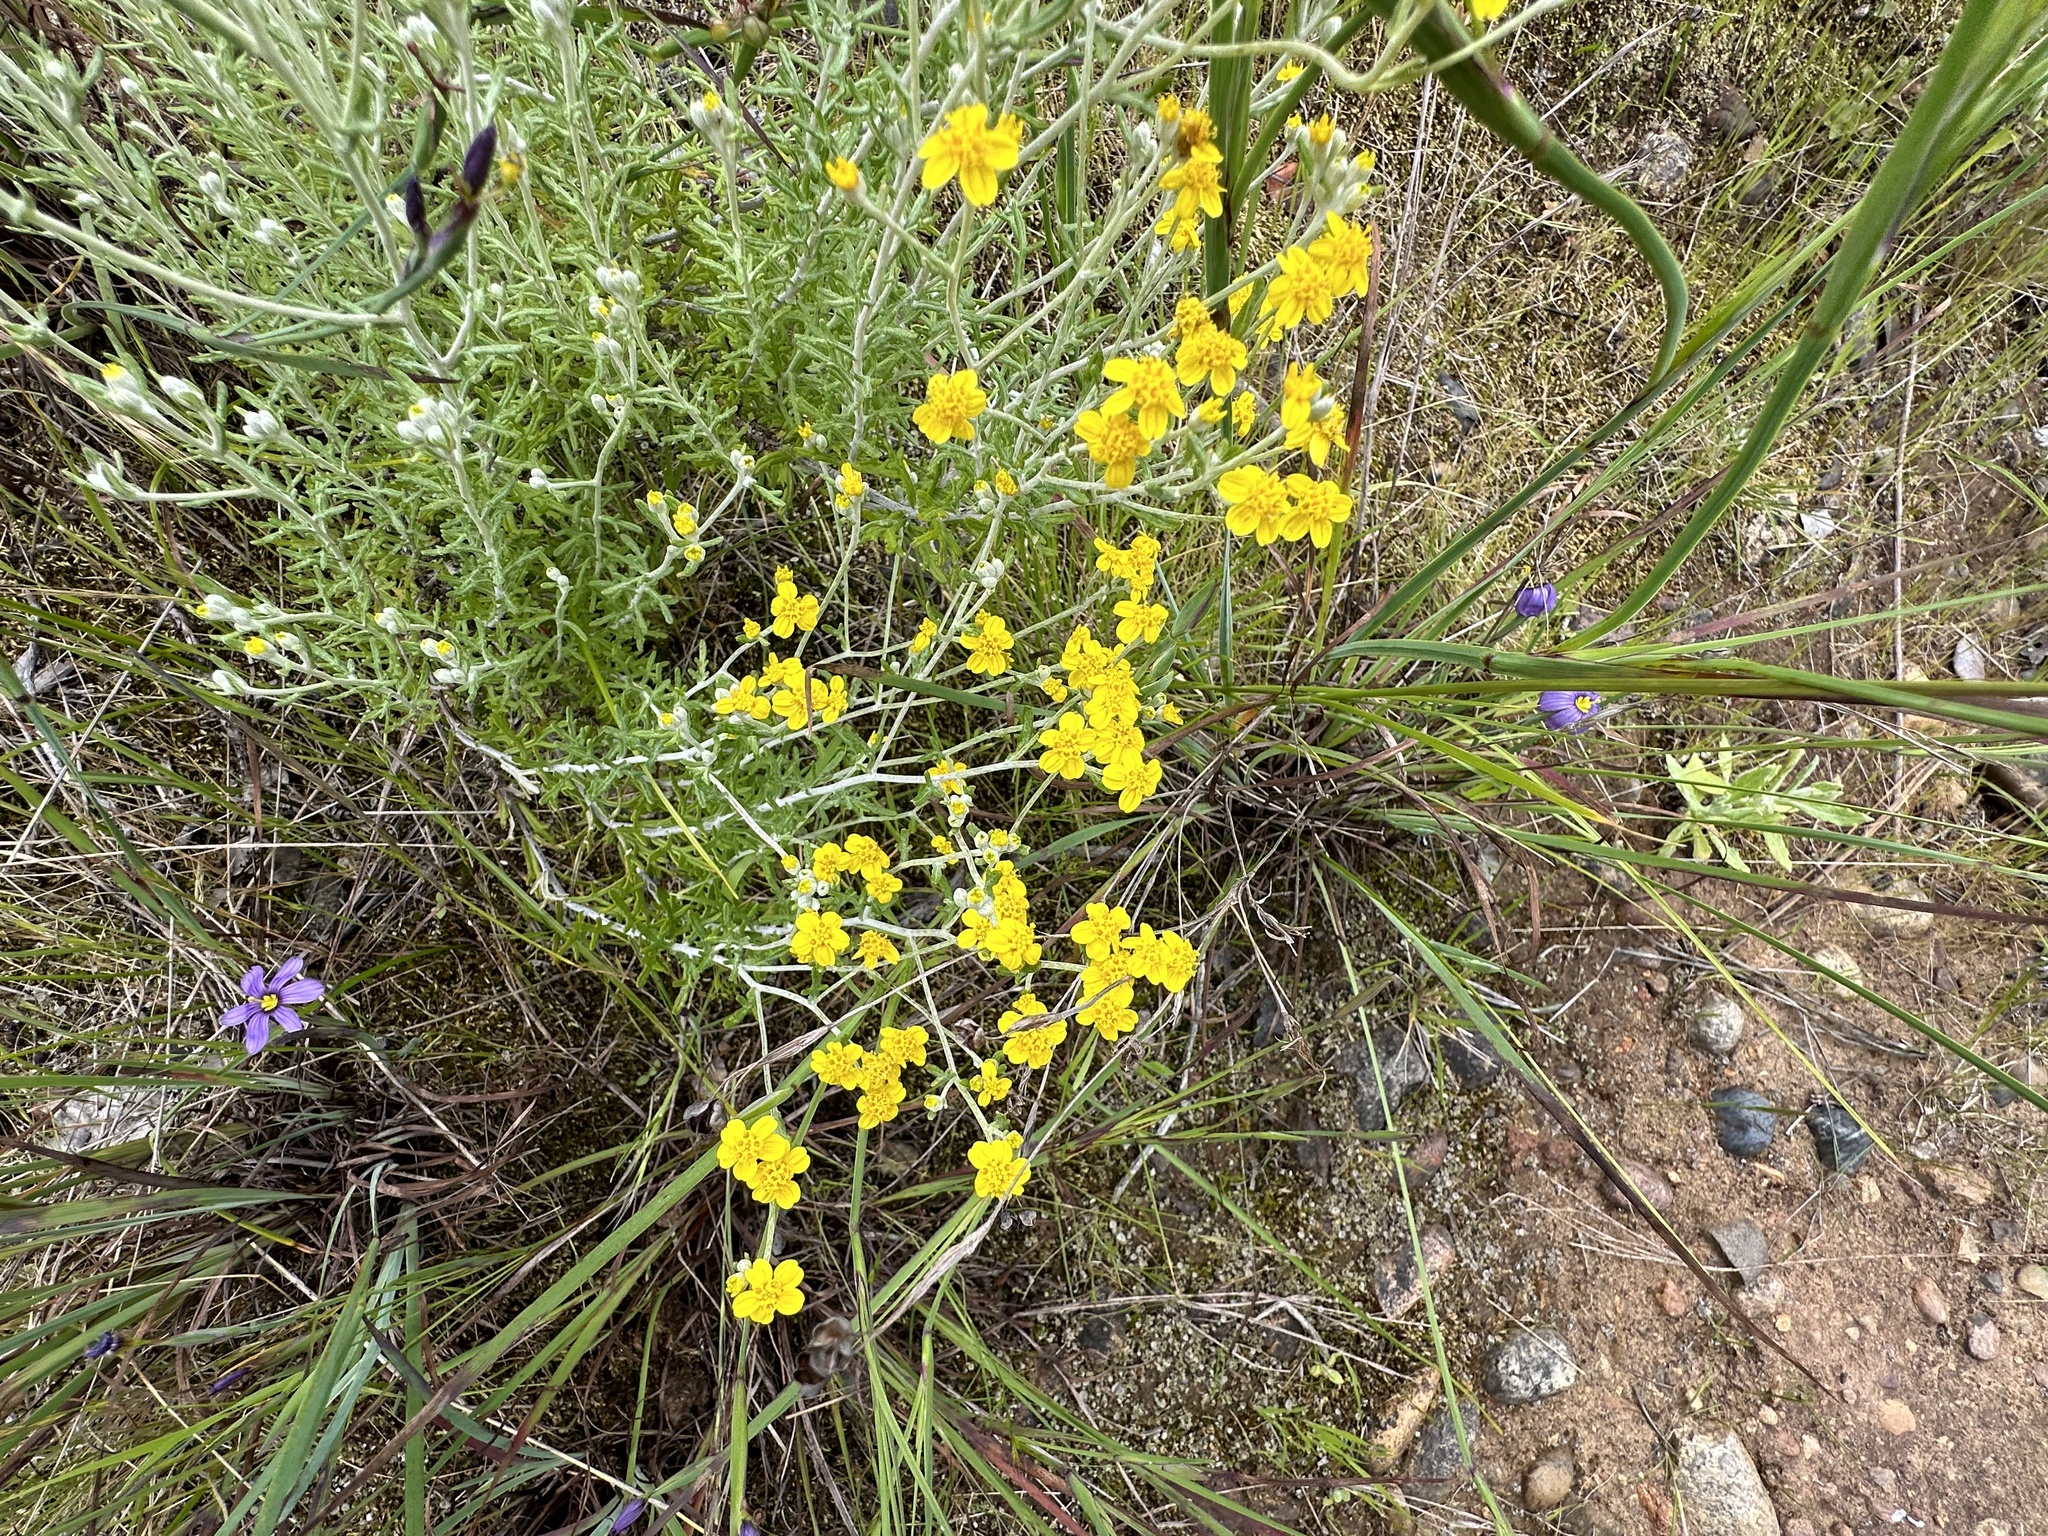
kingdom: Plantae
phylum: Tracheophyta
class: Magnoliopsida
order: Asterales
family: Asteraceae
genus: Eriophyllum
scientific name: Eriophyllum confertiflorum
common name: Golden-yarrow
